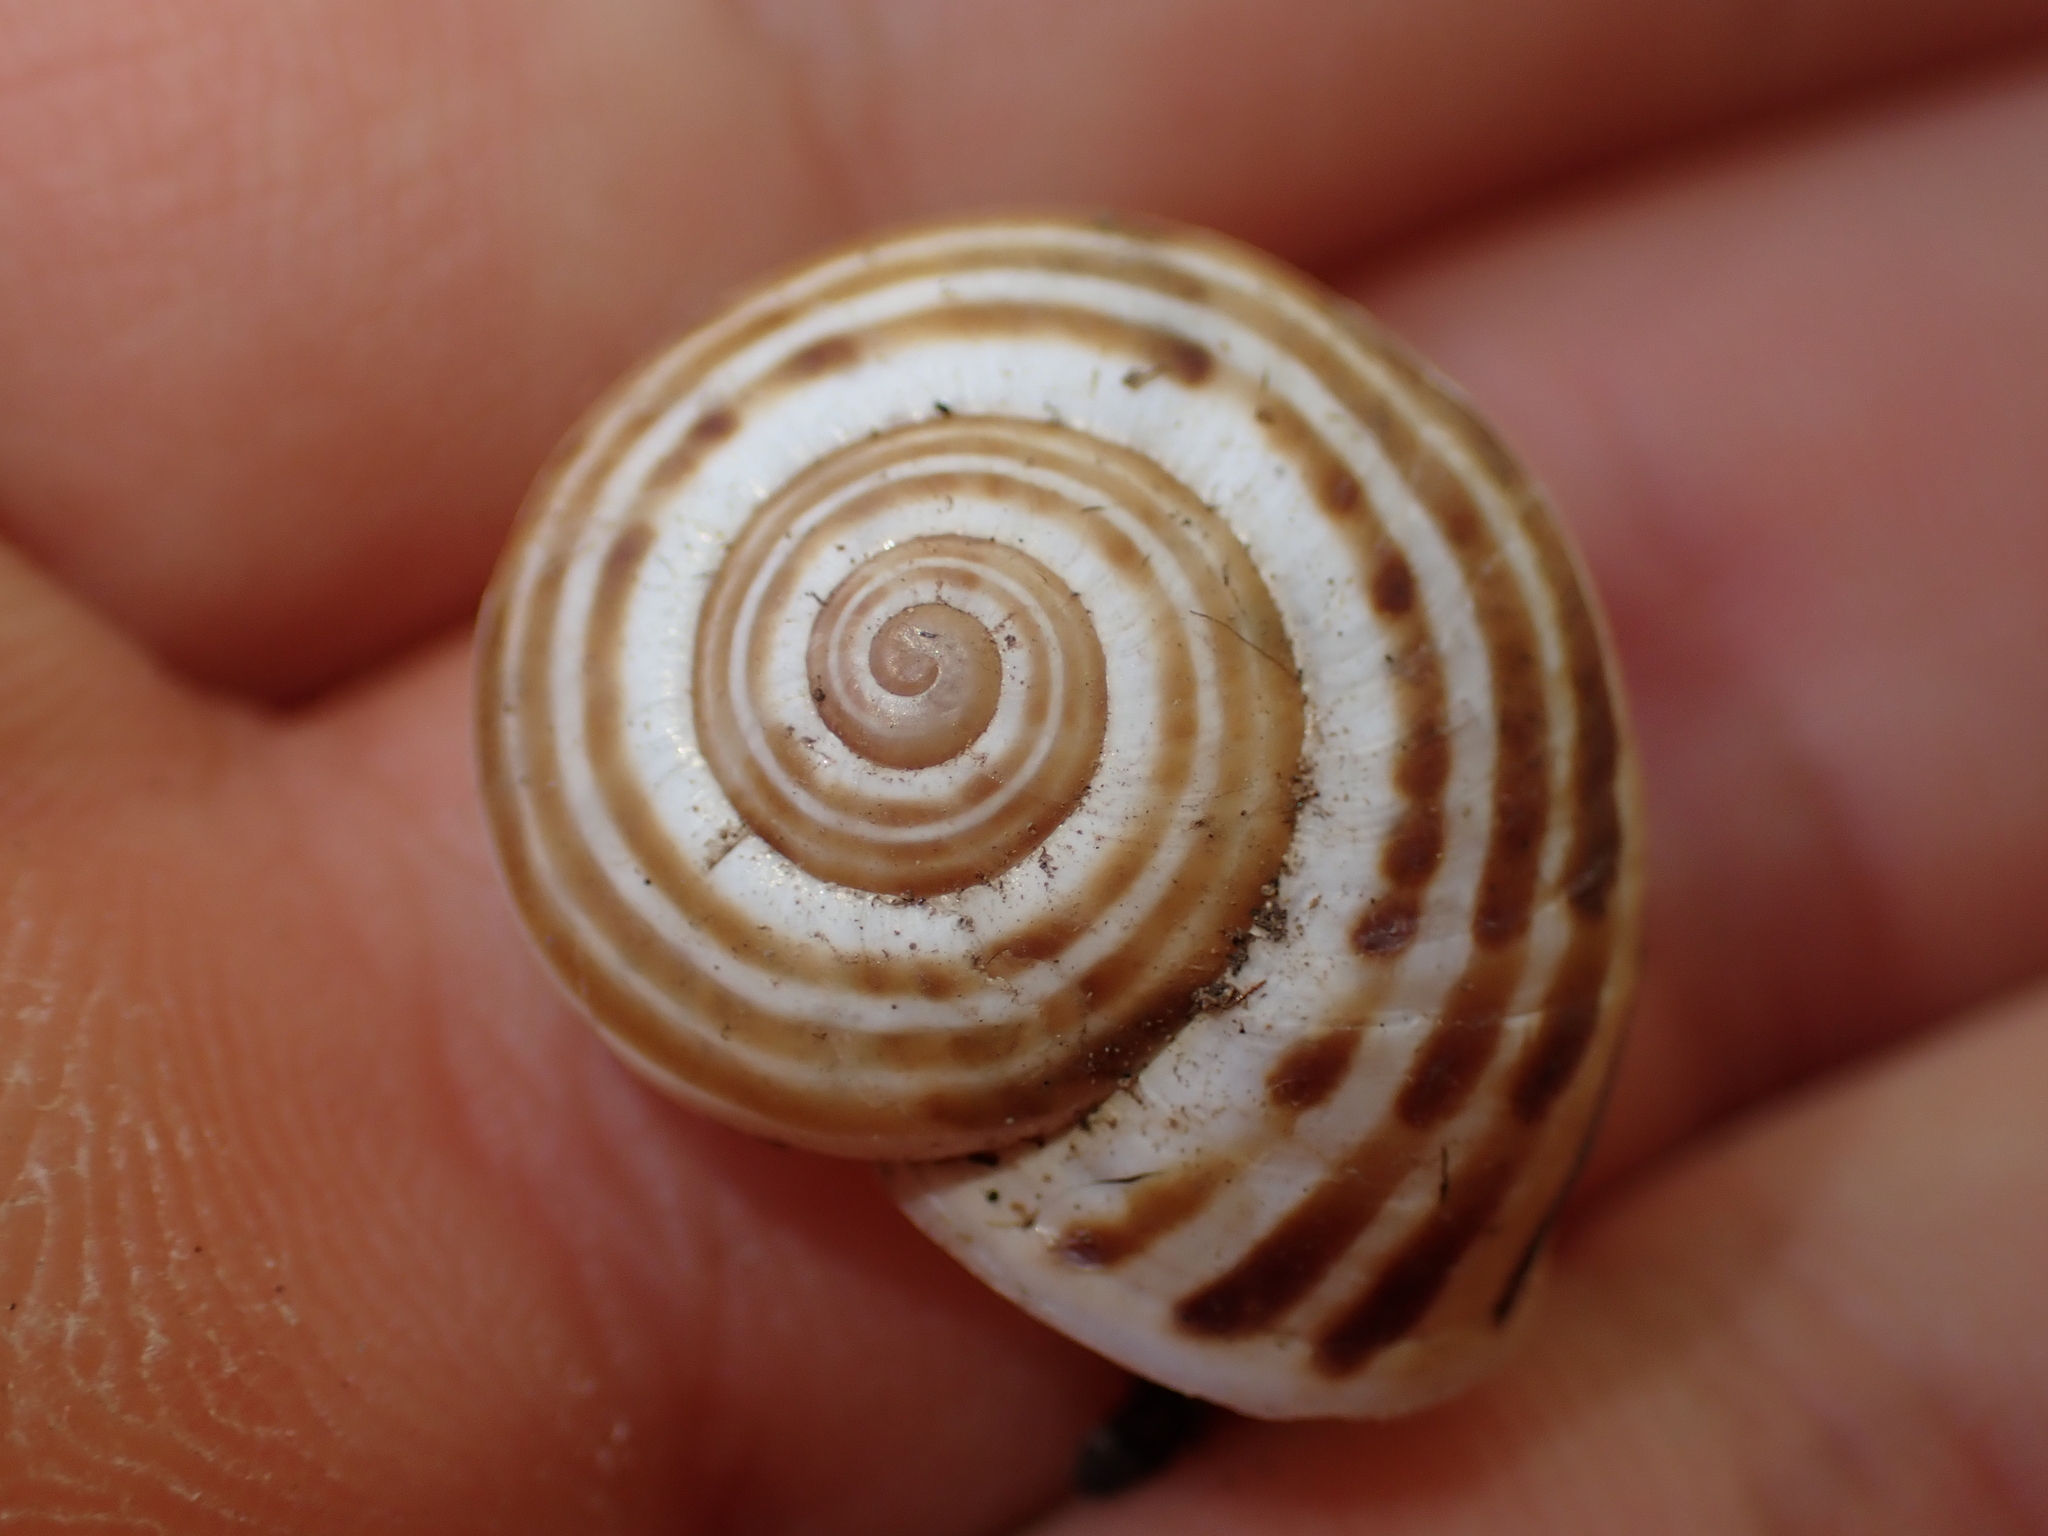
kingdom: Animalia
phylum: Mollusca
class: Gastropoda
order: Stylommatophora
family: Helicidae
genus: Pseudotachea
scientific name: Pseudotachea splendida
